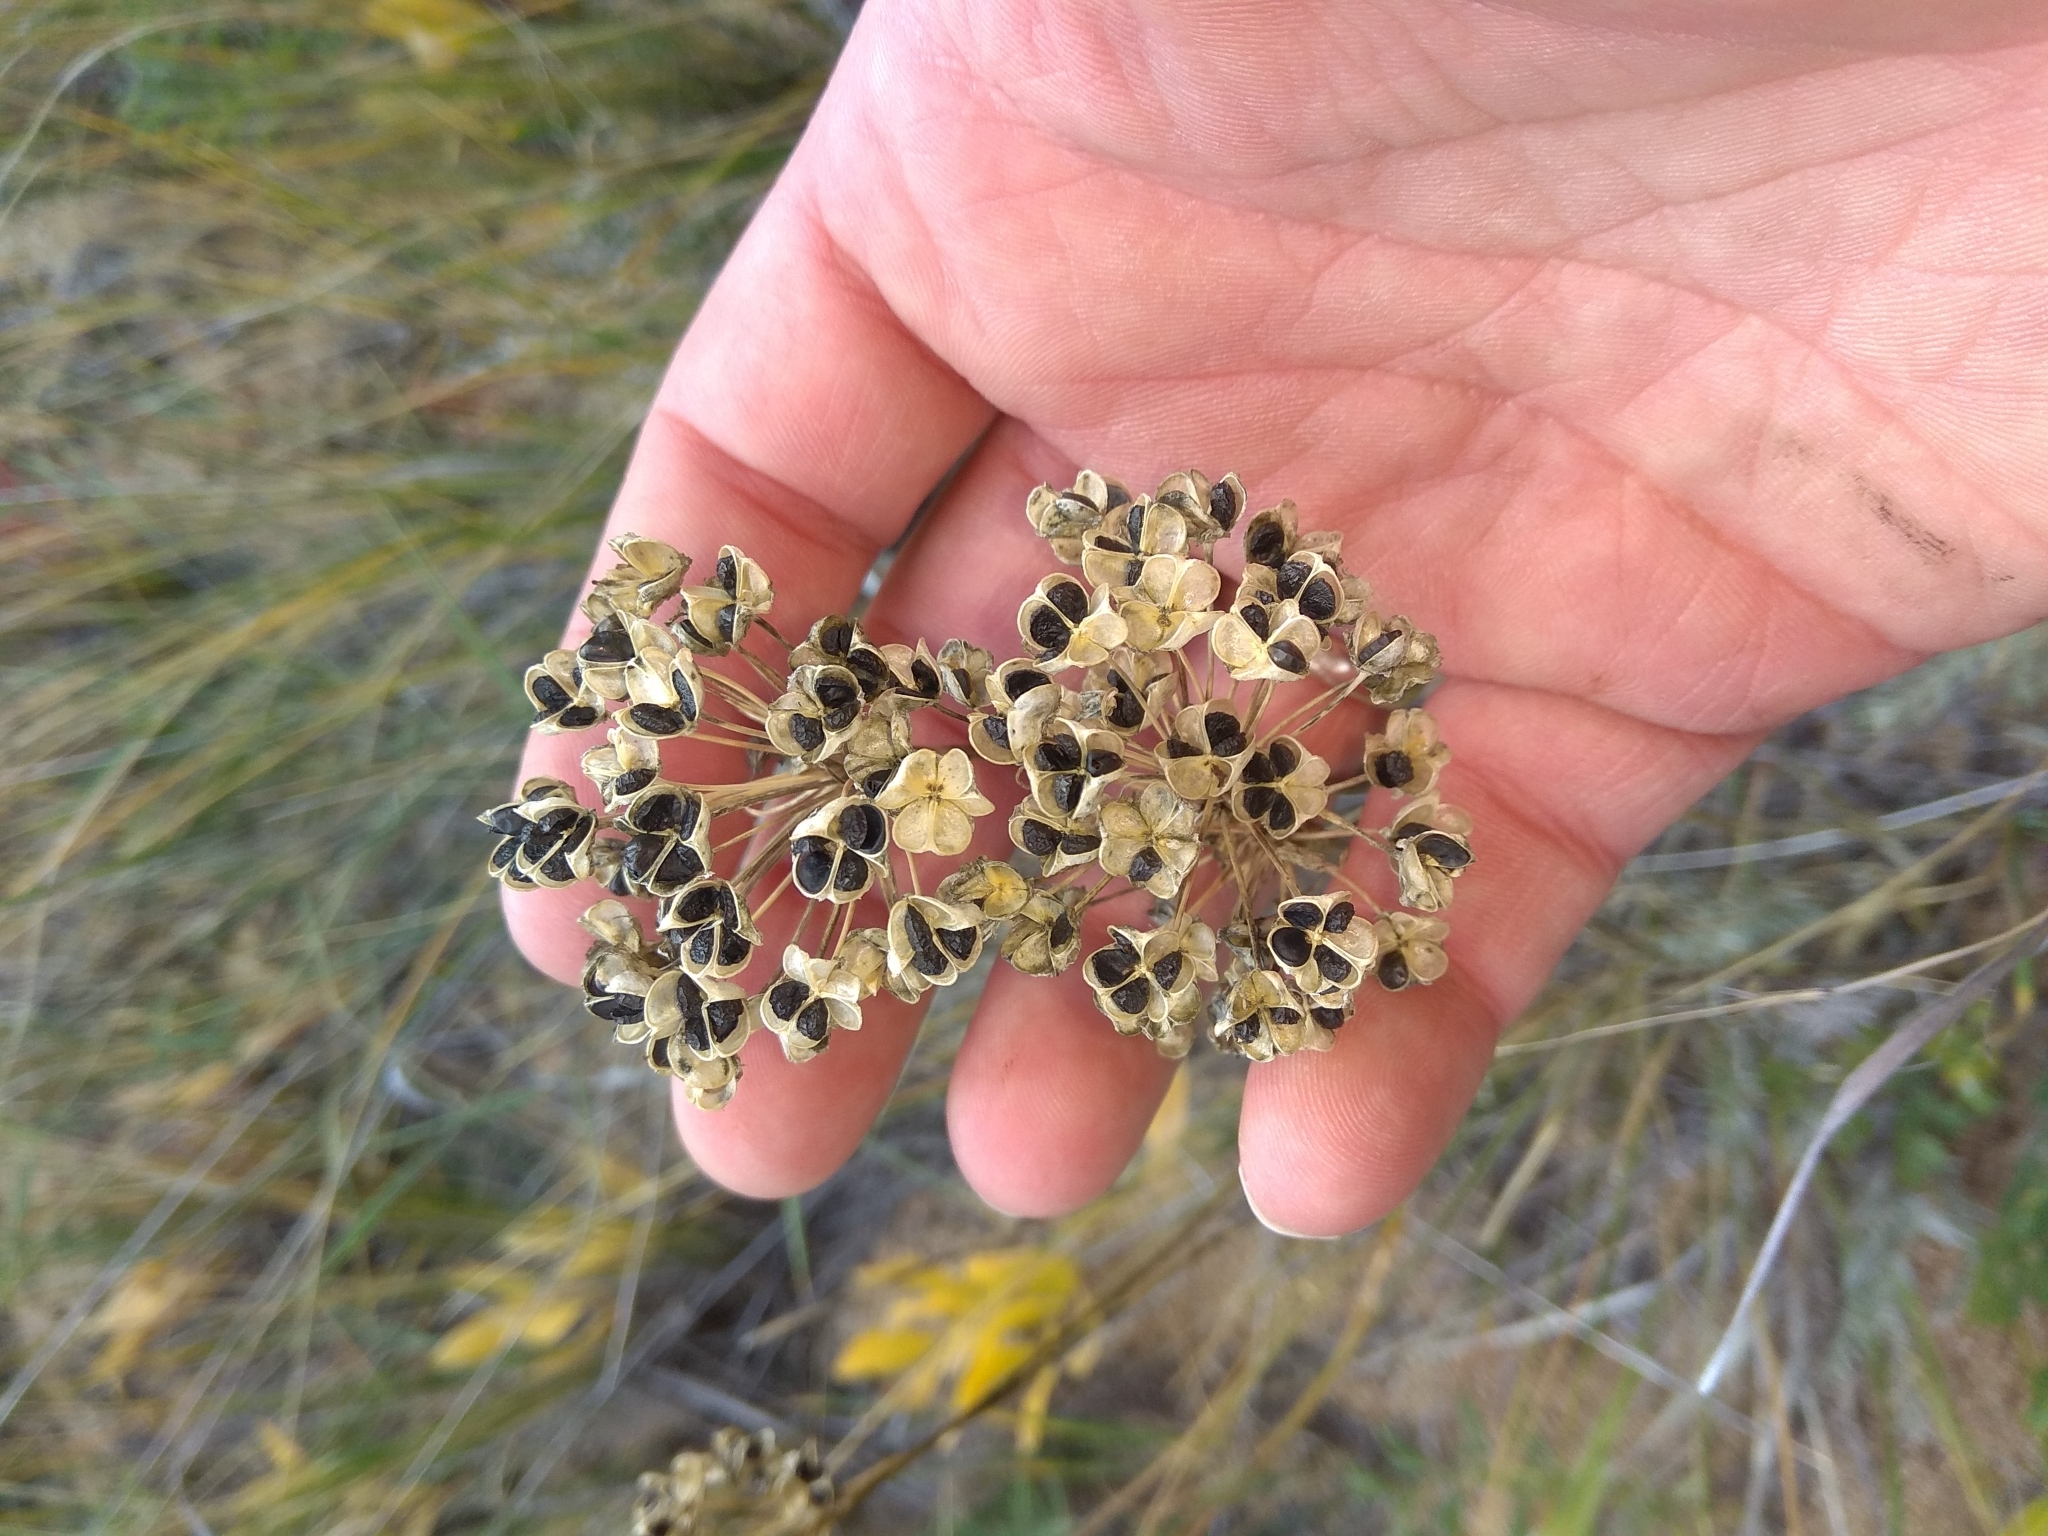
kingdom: Plantae
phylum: Tracheophyta
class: Liliopsida
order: Asparagales
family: Amaryllidaceae
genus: Allium
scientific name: Allium ramosum
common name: Fragrant garlic
